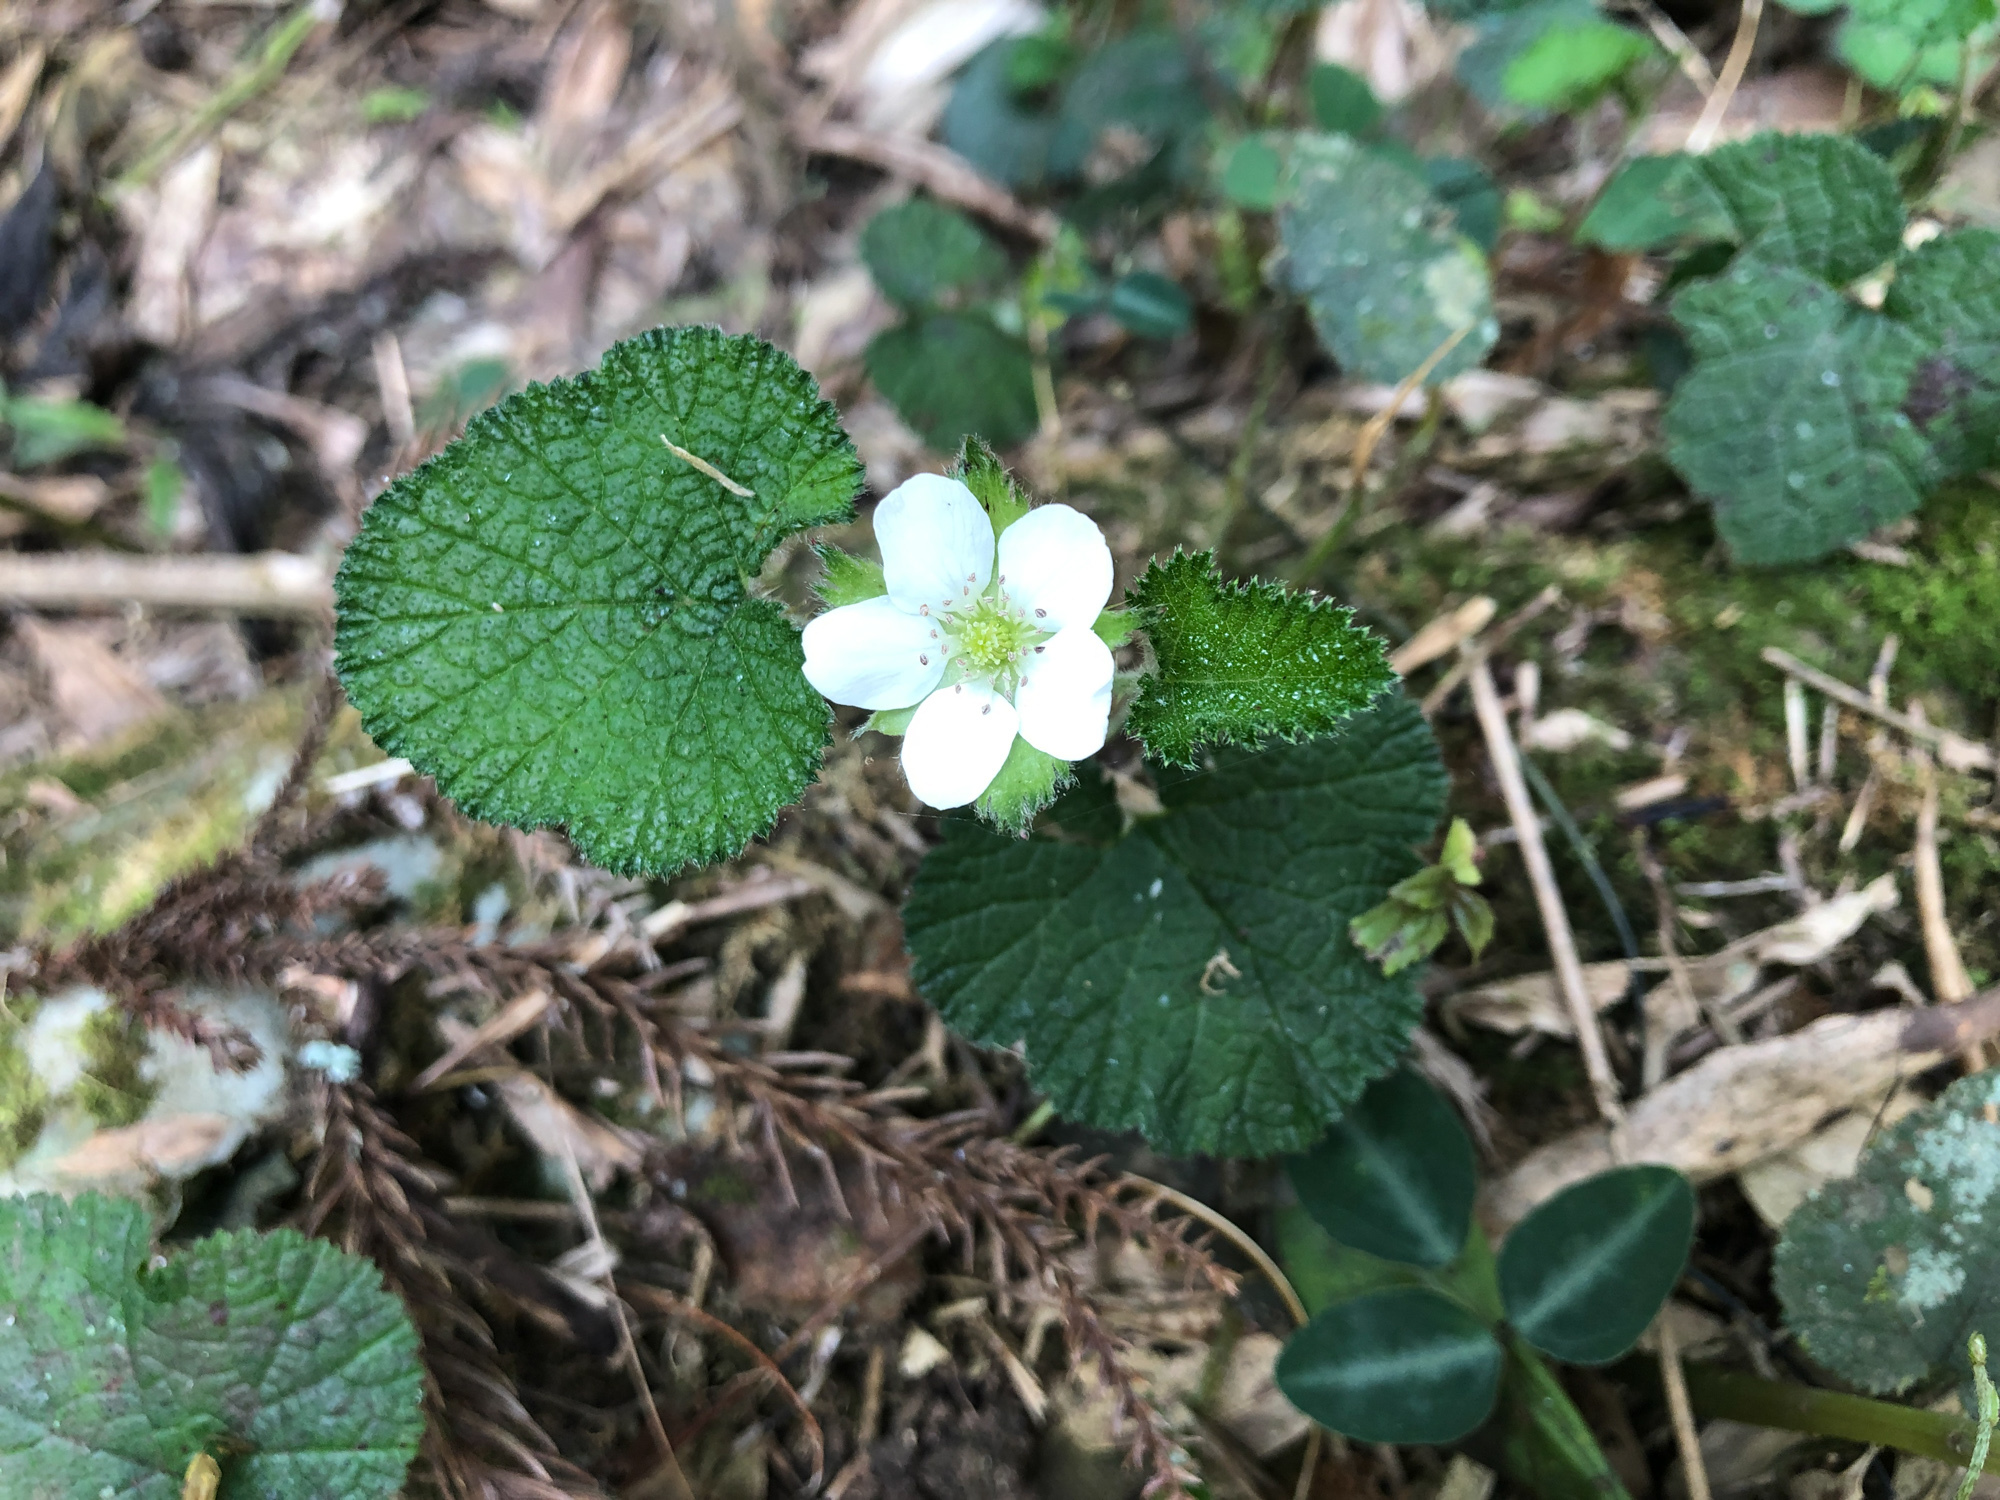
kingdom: Plantae
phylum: Tracheophyta
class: Magnoliopsida
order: Rosales
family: Rosaceae
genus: Rubus
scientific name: Rubus pectinellus
